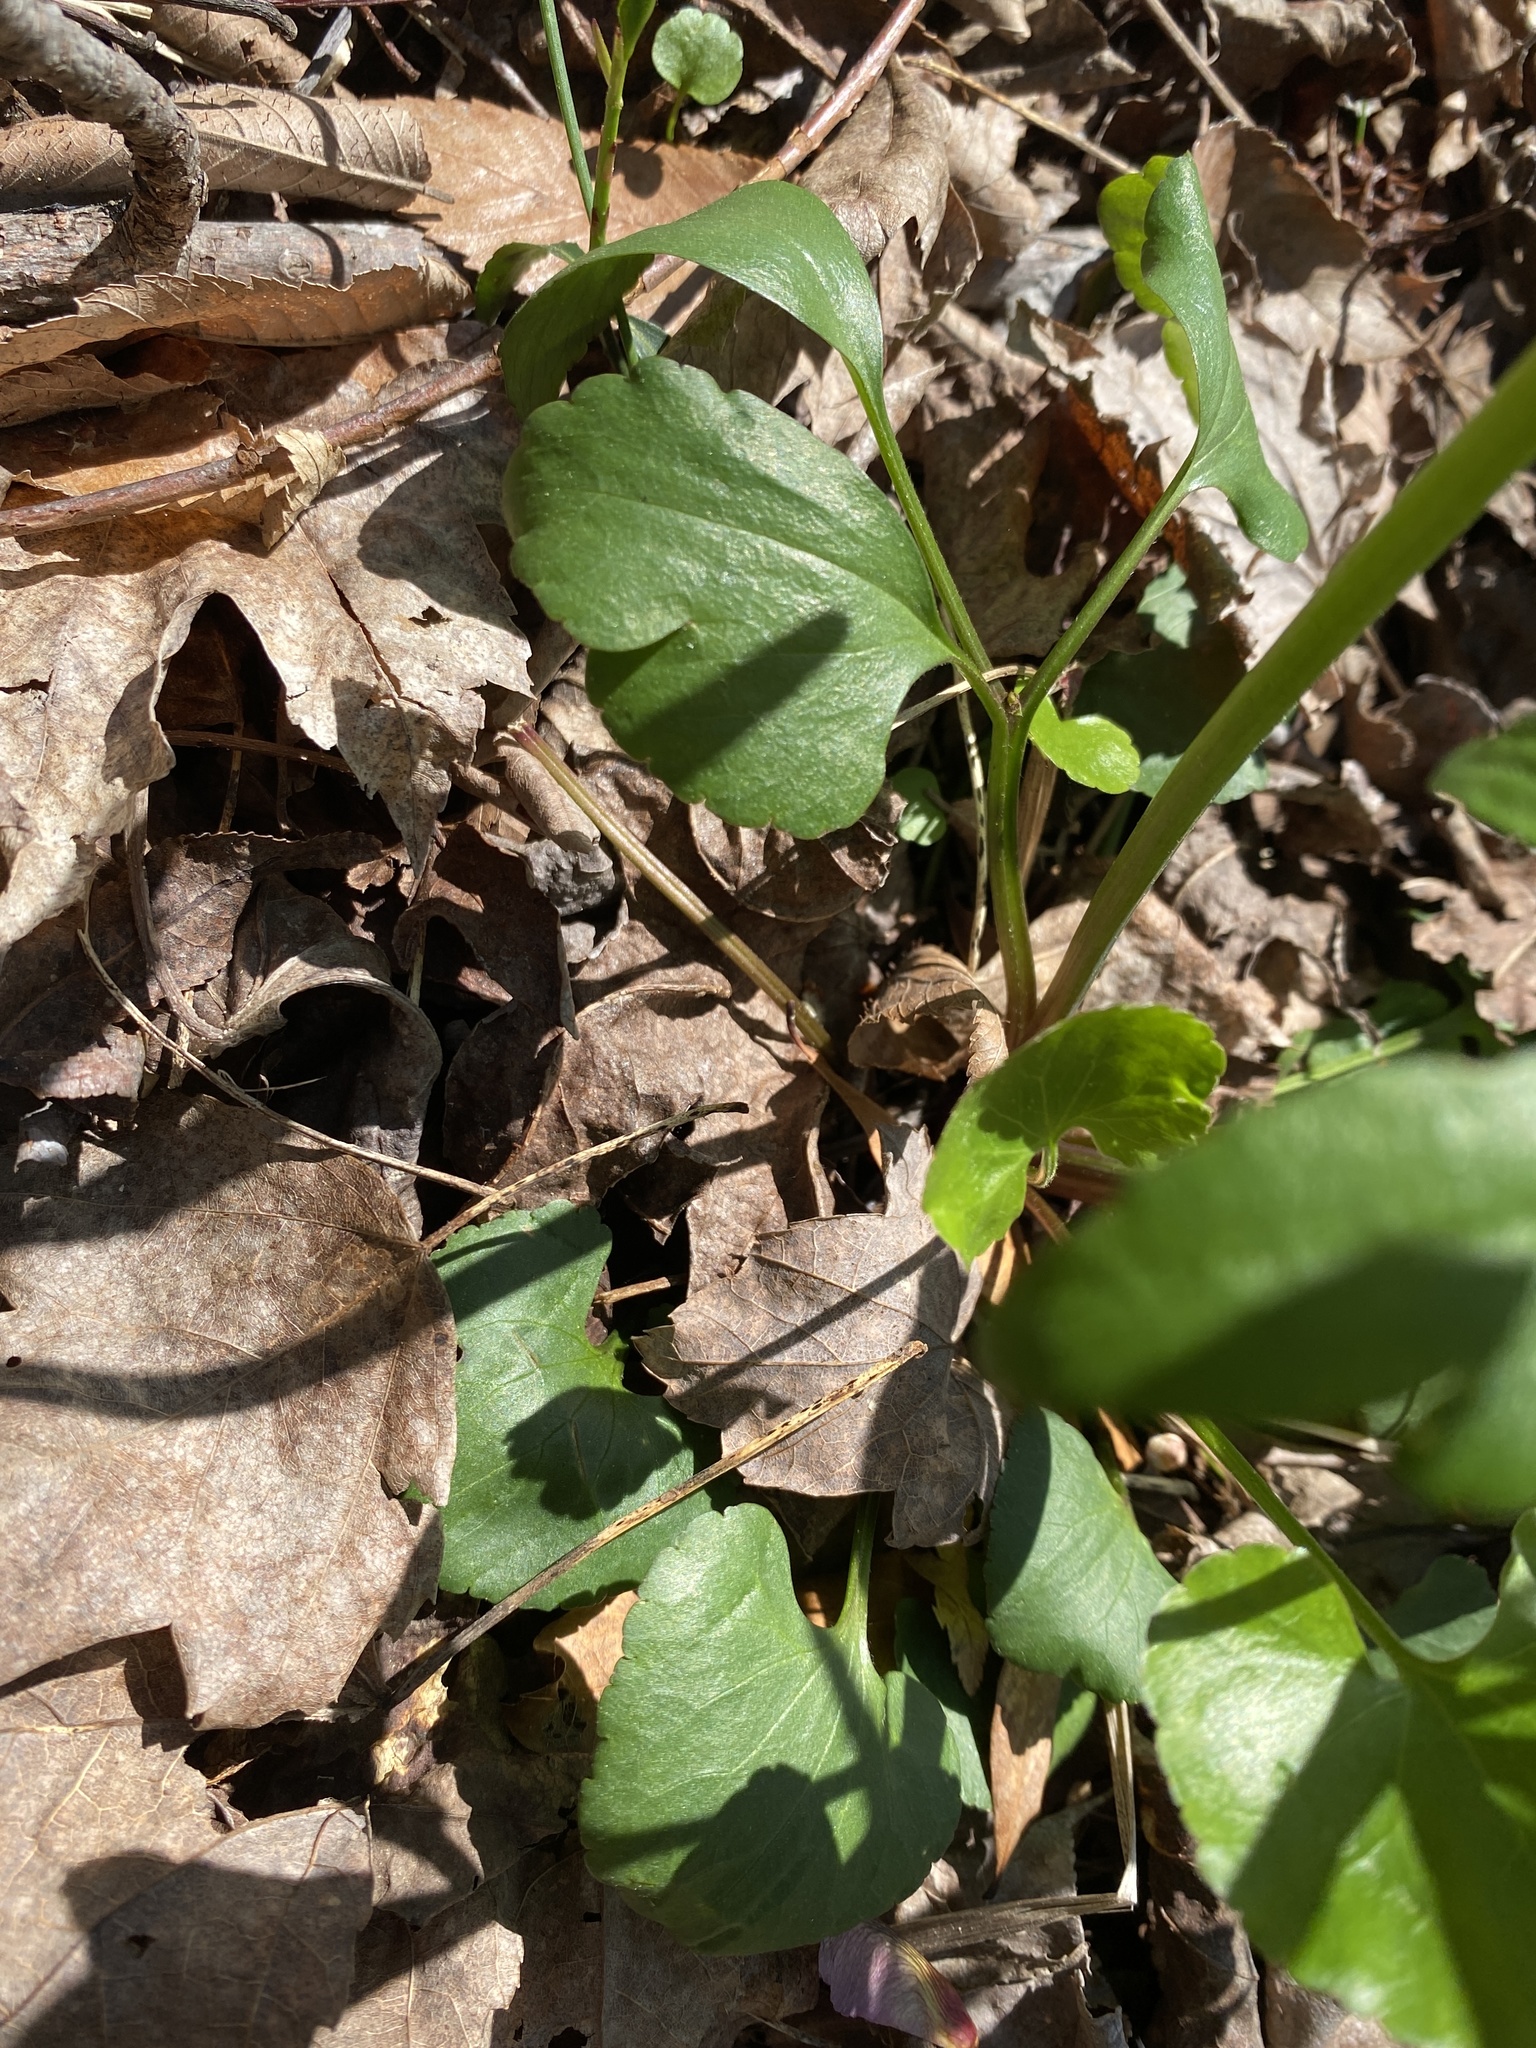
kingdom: Plantae
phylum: Tracheophyta
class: Magnoliopsida
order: Ranunculales
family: Ranunculaceae
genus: Ranunculus
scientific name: Ranunculus abortivus
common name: Early wood buttercup
